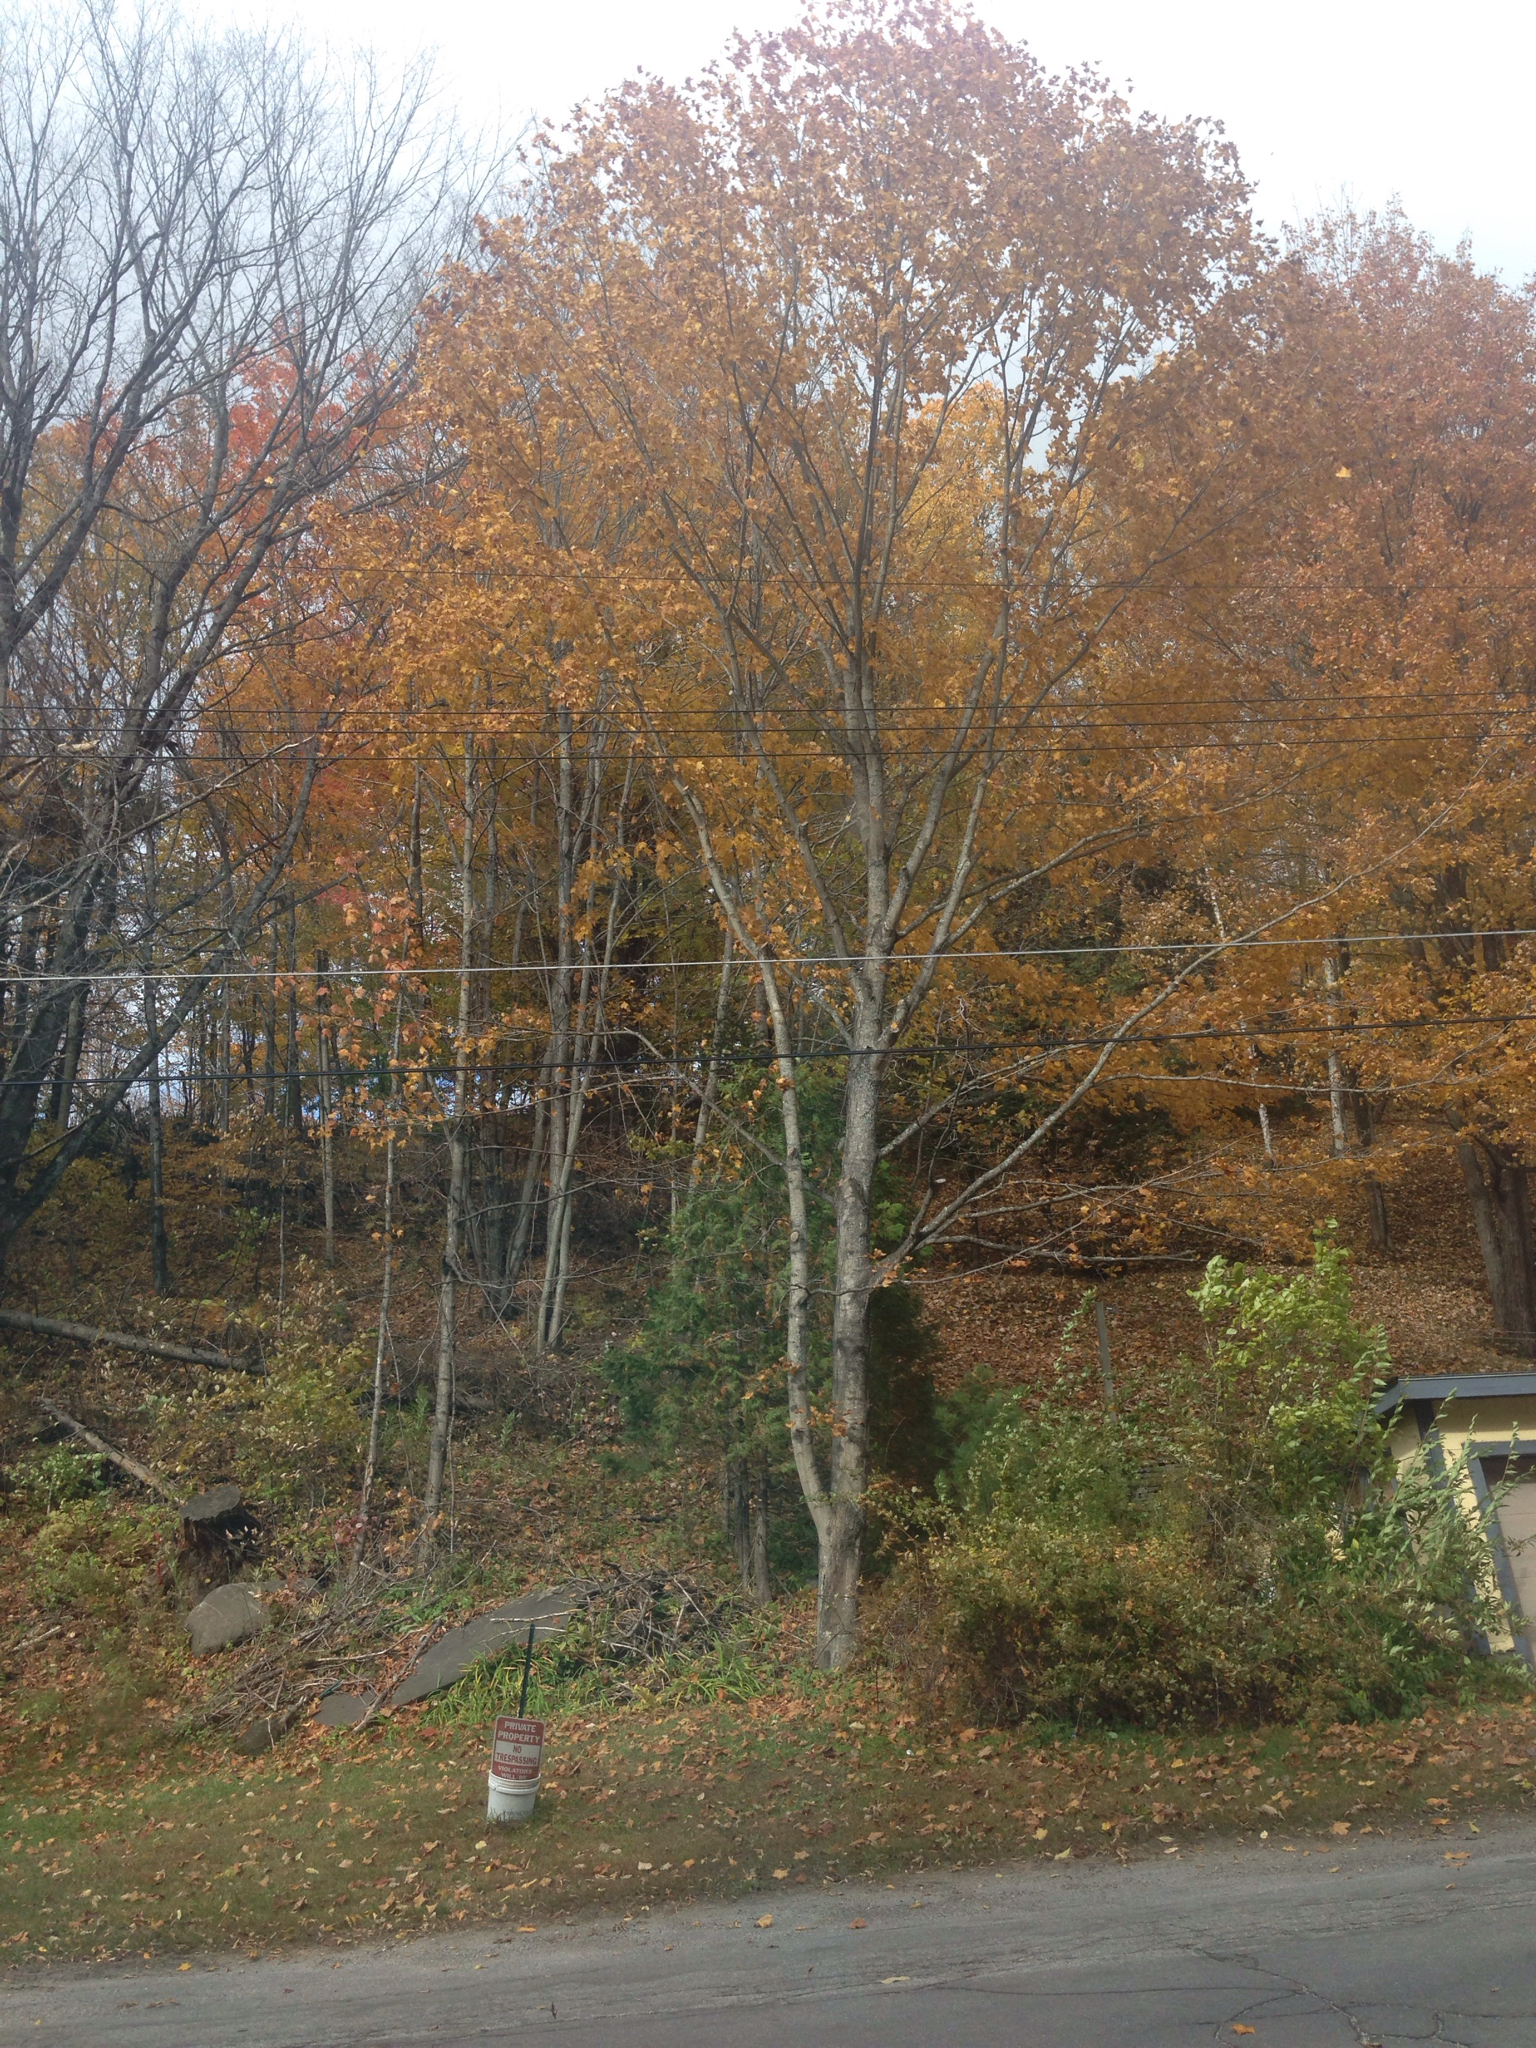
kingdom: Plantae
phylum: Tracheophyta
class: Magnoliopsida
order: Sapindales
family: Sapindaceae
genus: Acer
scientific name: Acer saccharum
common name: Sugar maple
